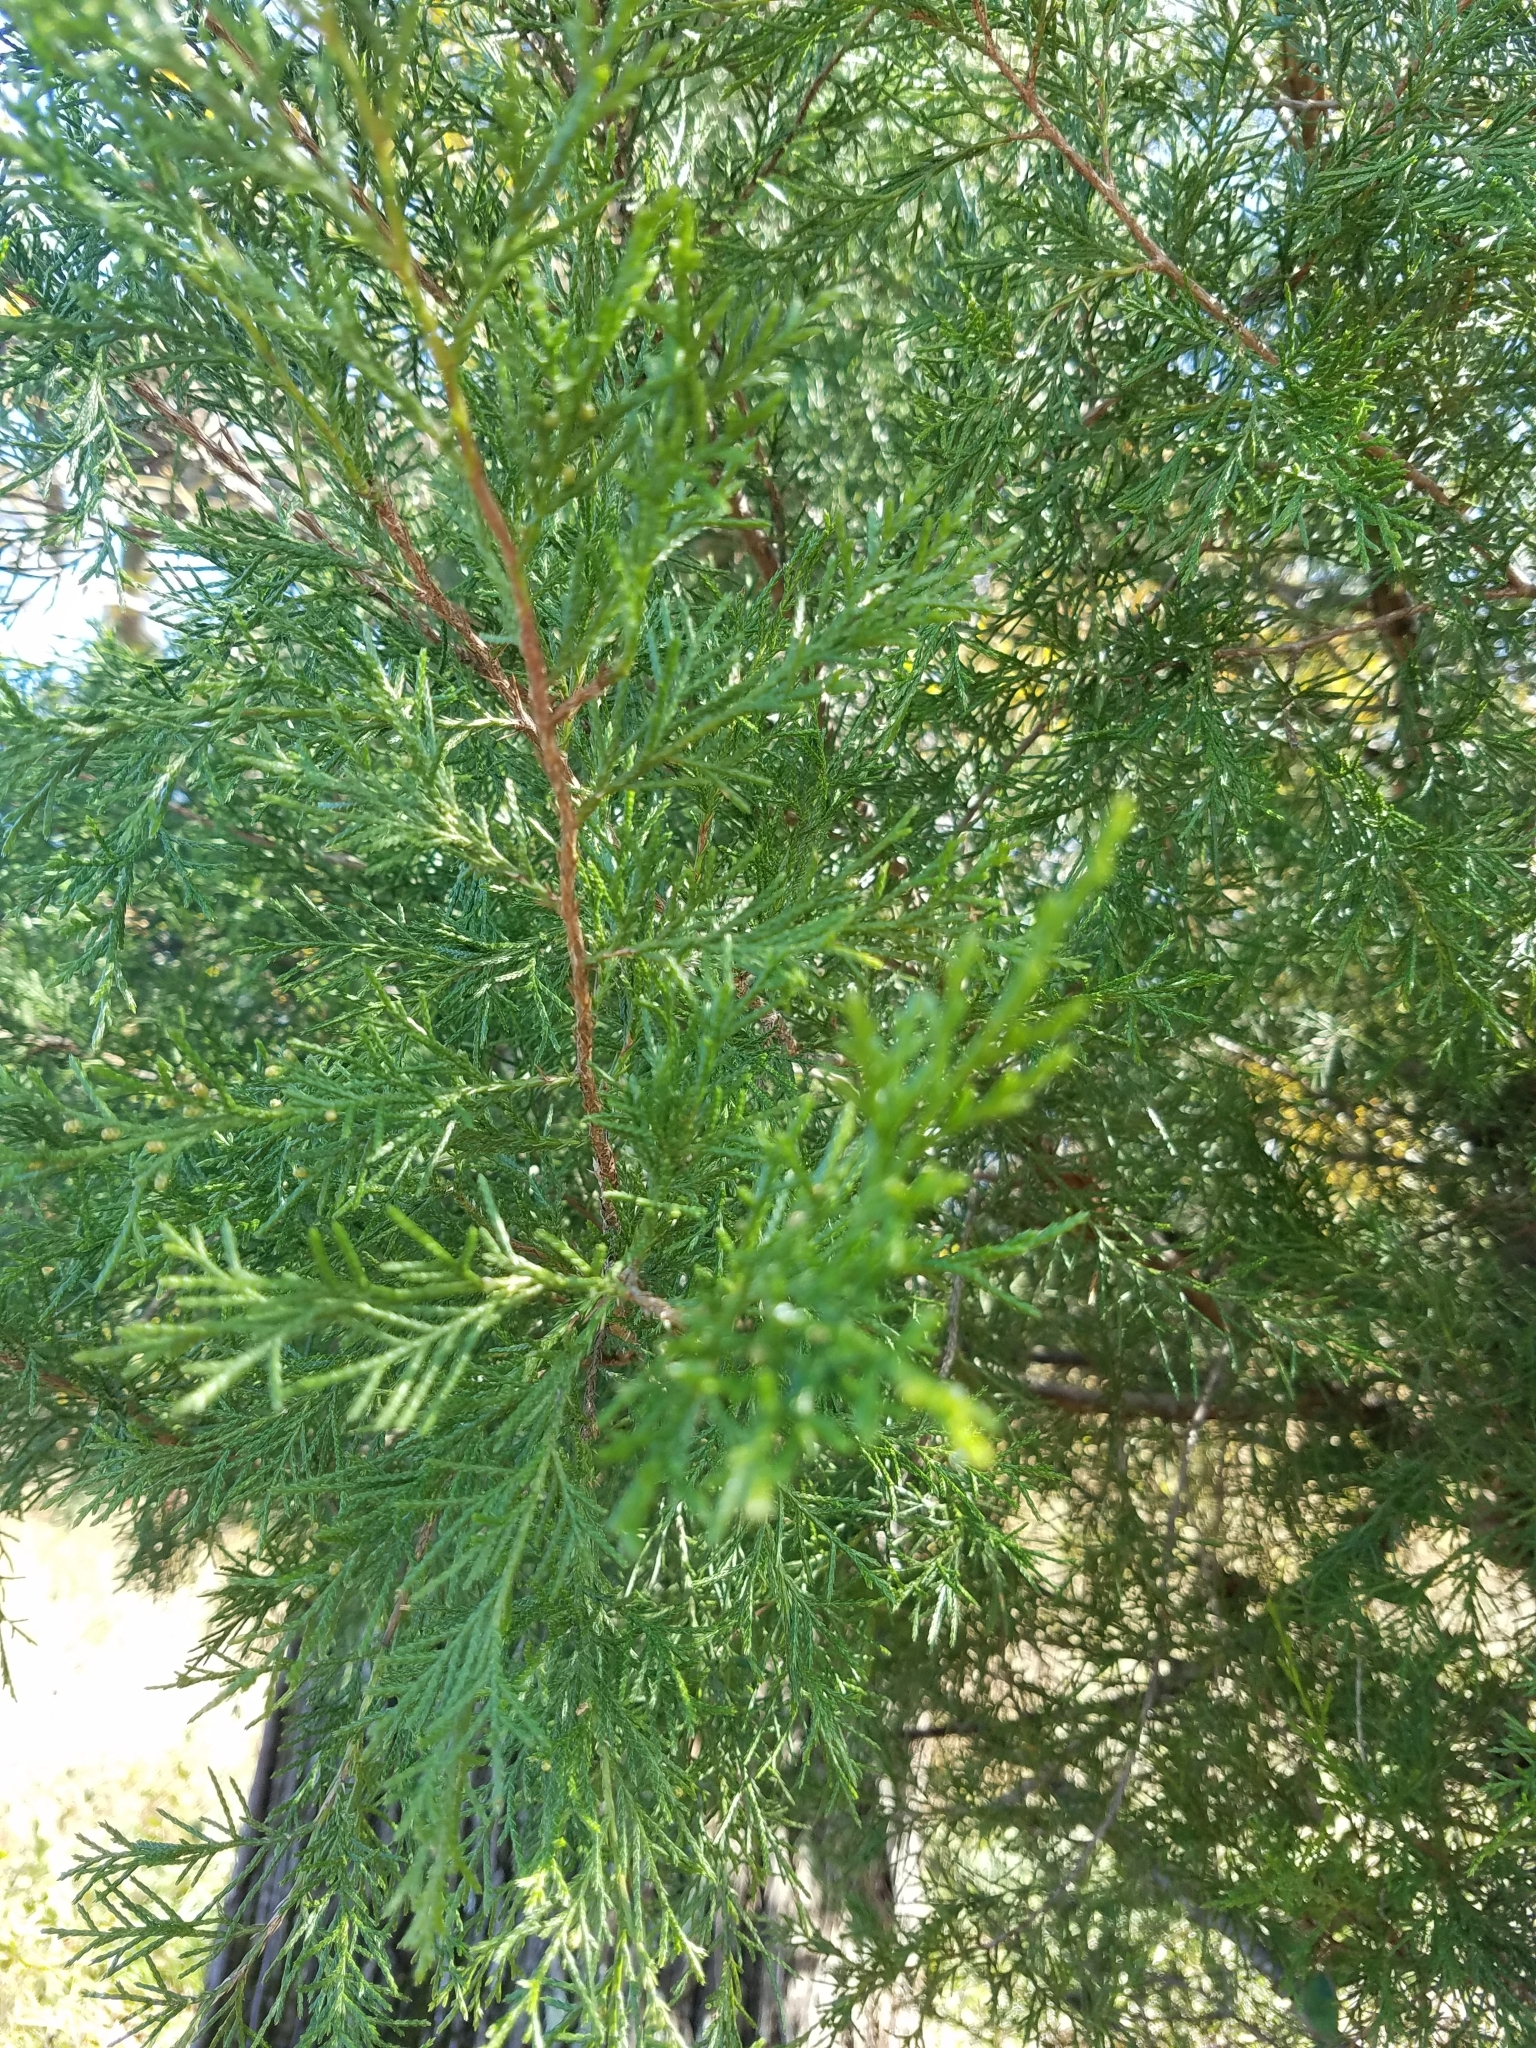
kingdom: Plantae
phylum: Tracheophyta
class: Pinopsida
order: Pinales
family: Cupressaceae
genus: Juniperus
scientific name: Juniperus virginiana
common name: Red juniper
